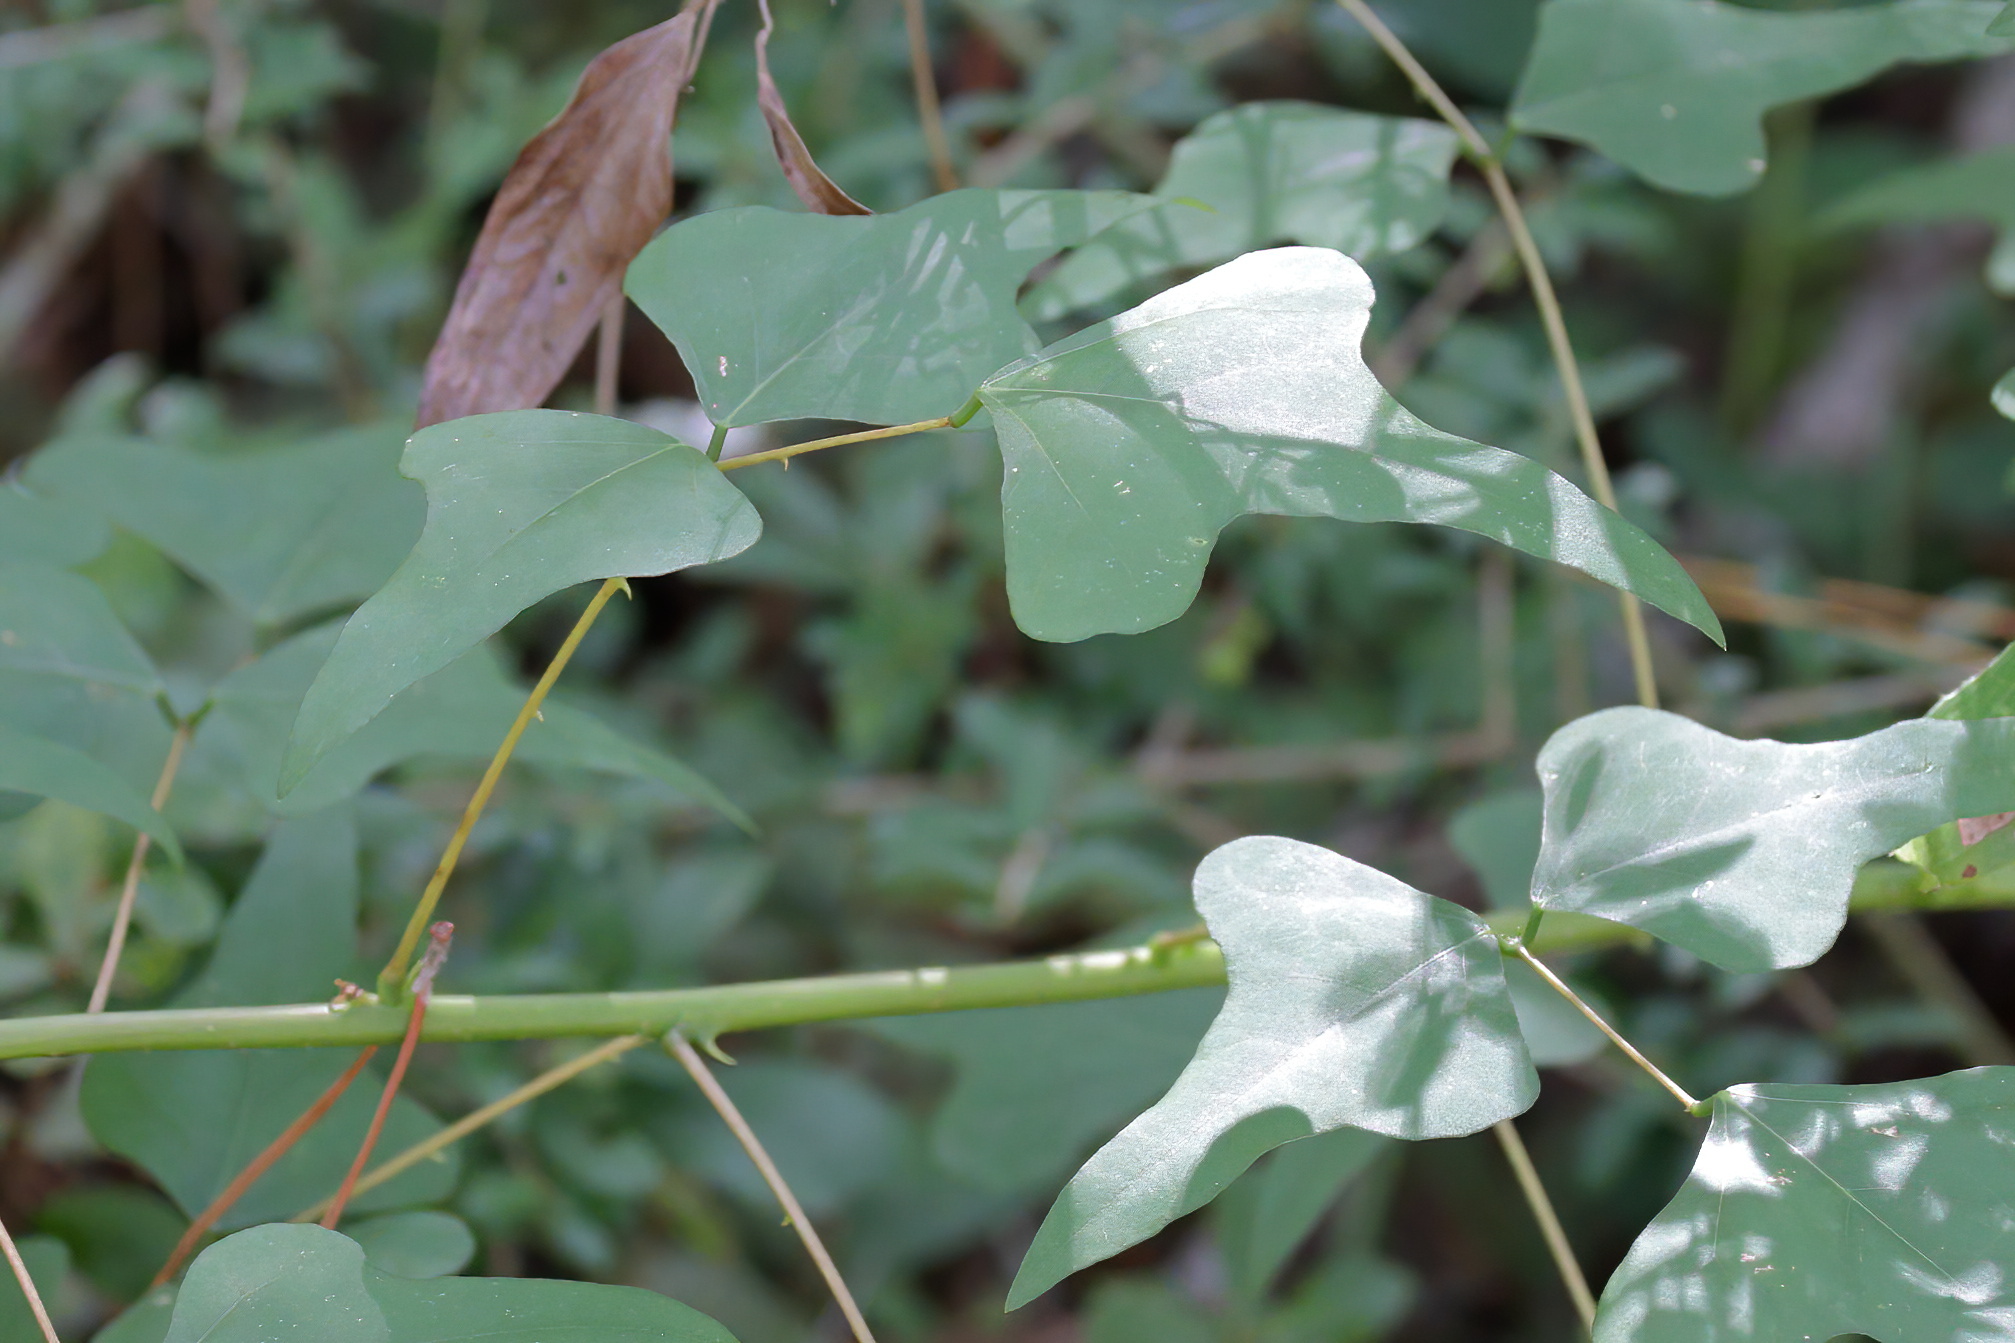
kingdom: Plantae
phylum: Tracheophyta
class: Magnoliopsida
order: Fabales
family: Fabaceae
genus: Erythrina
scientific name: Erythrina herbacea
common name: Coral-bean
